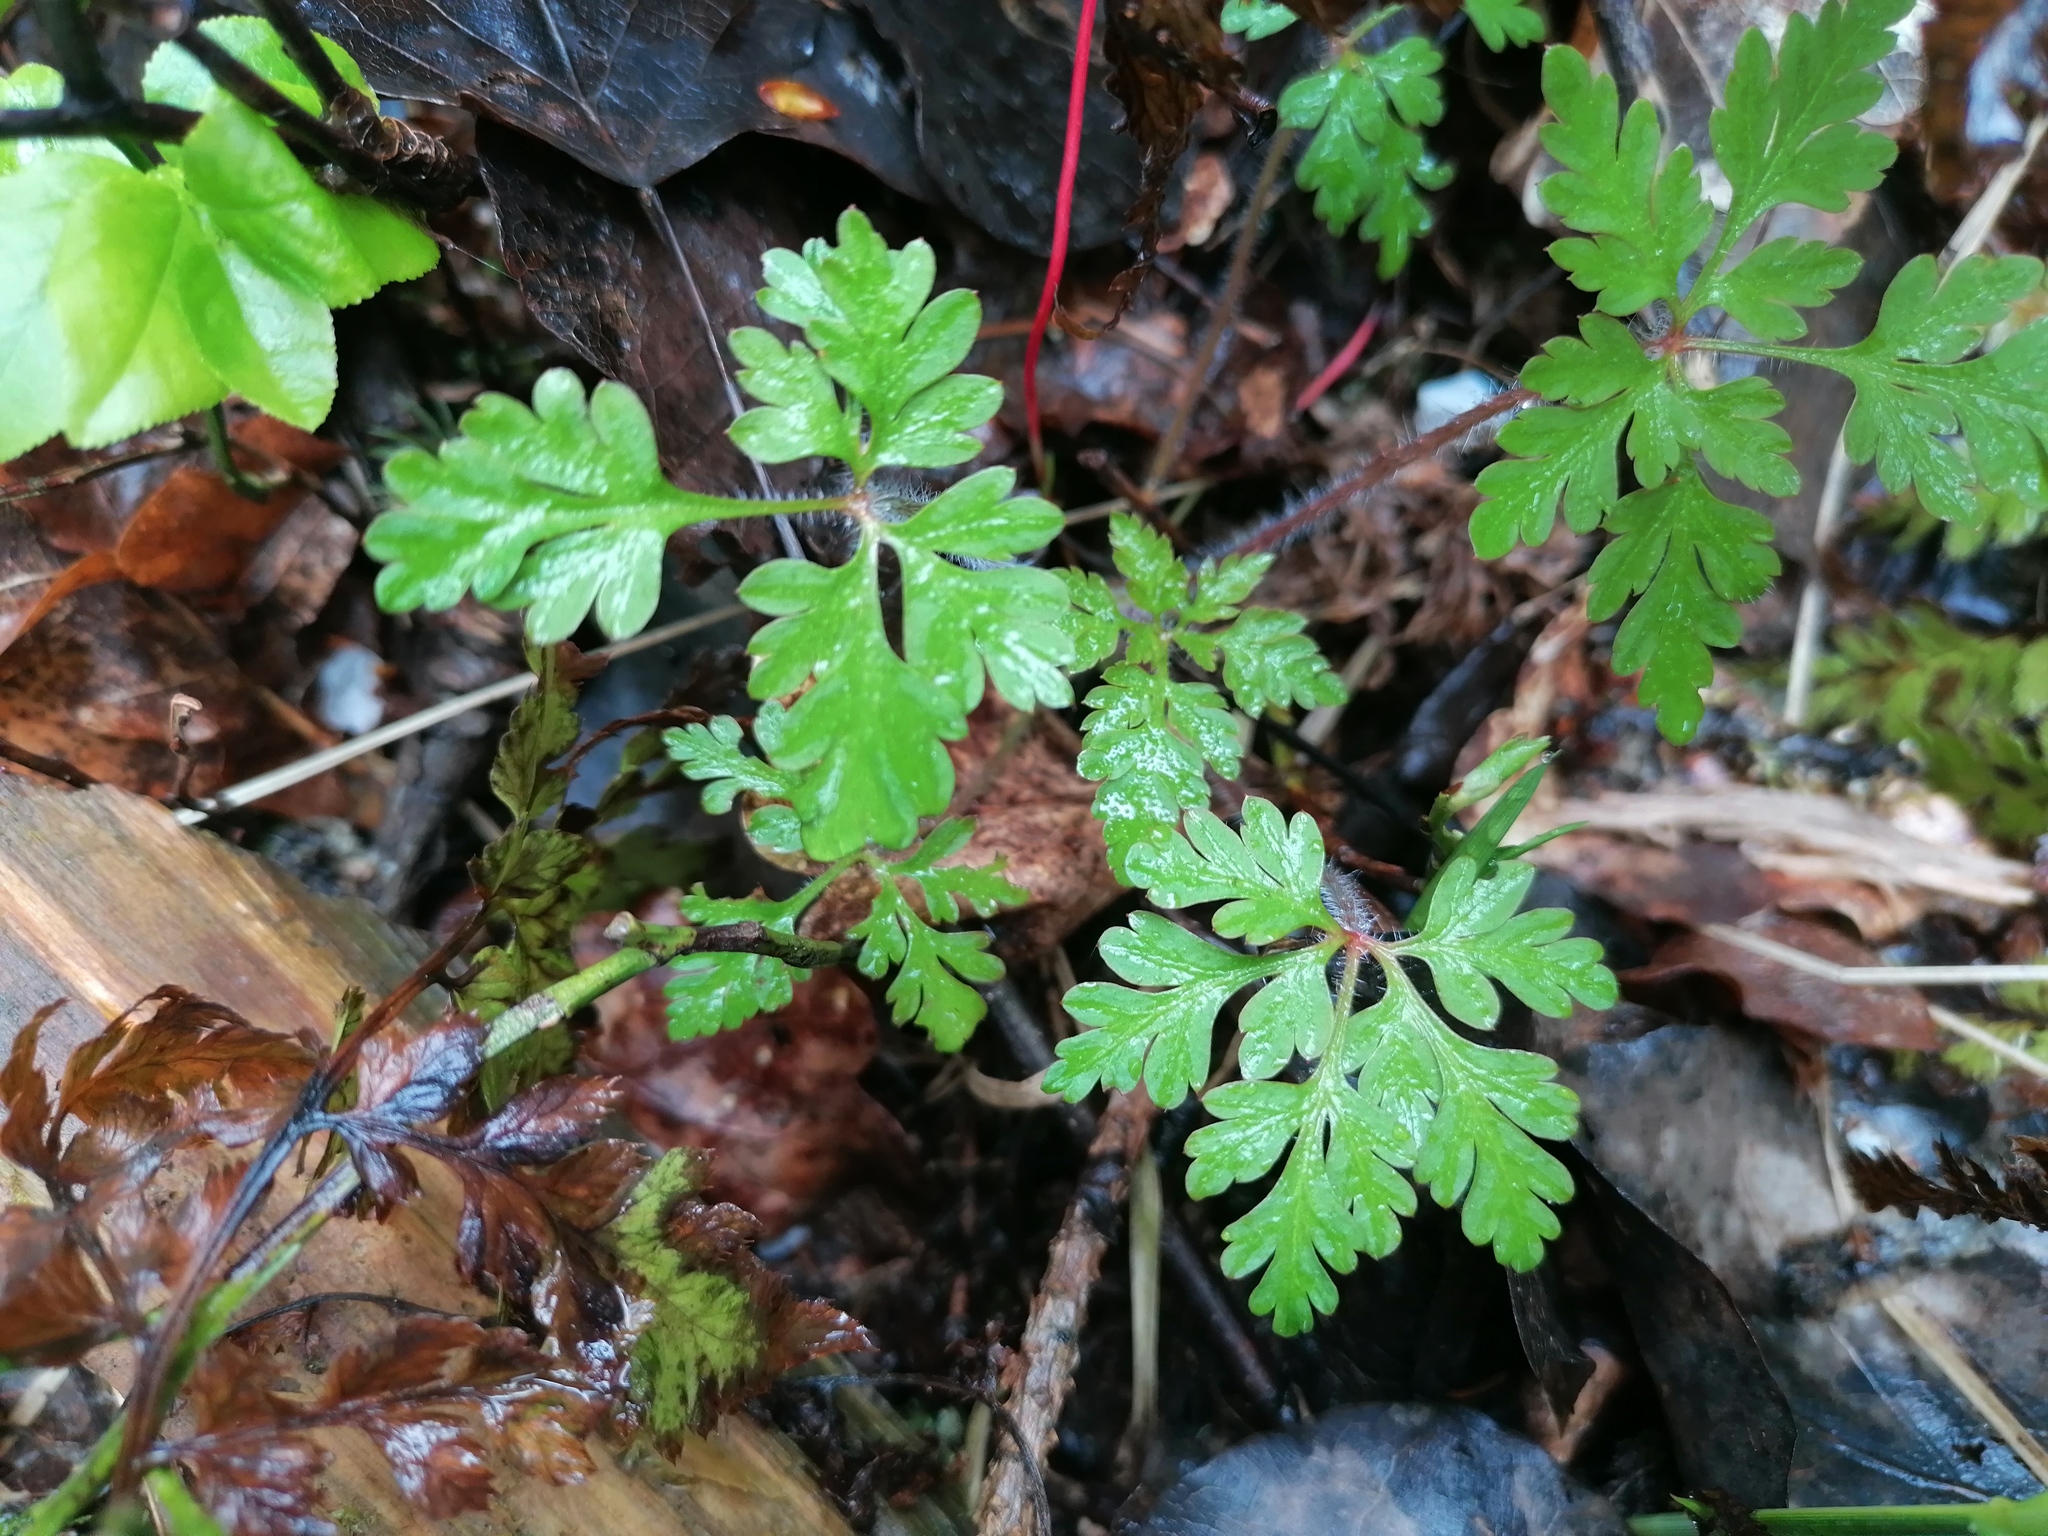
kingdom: Plantae
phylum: Tracheophyta
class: Magnoliopsida
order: Geraniales
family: Geraniaceae
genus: Geranium
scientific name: Geranium robertianum
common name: Herb-robert
